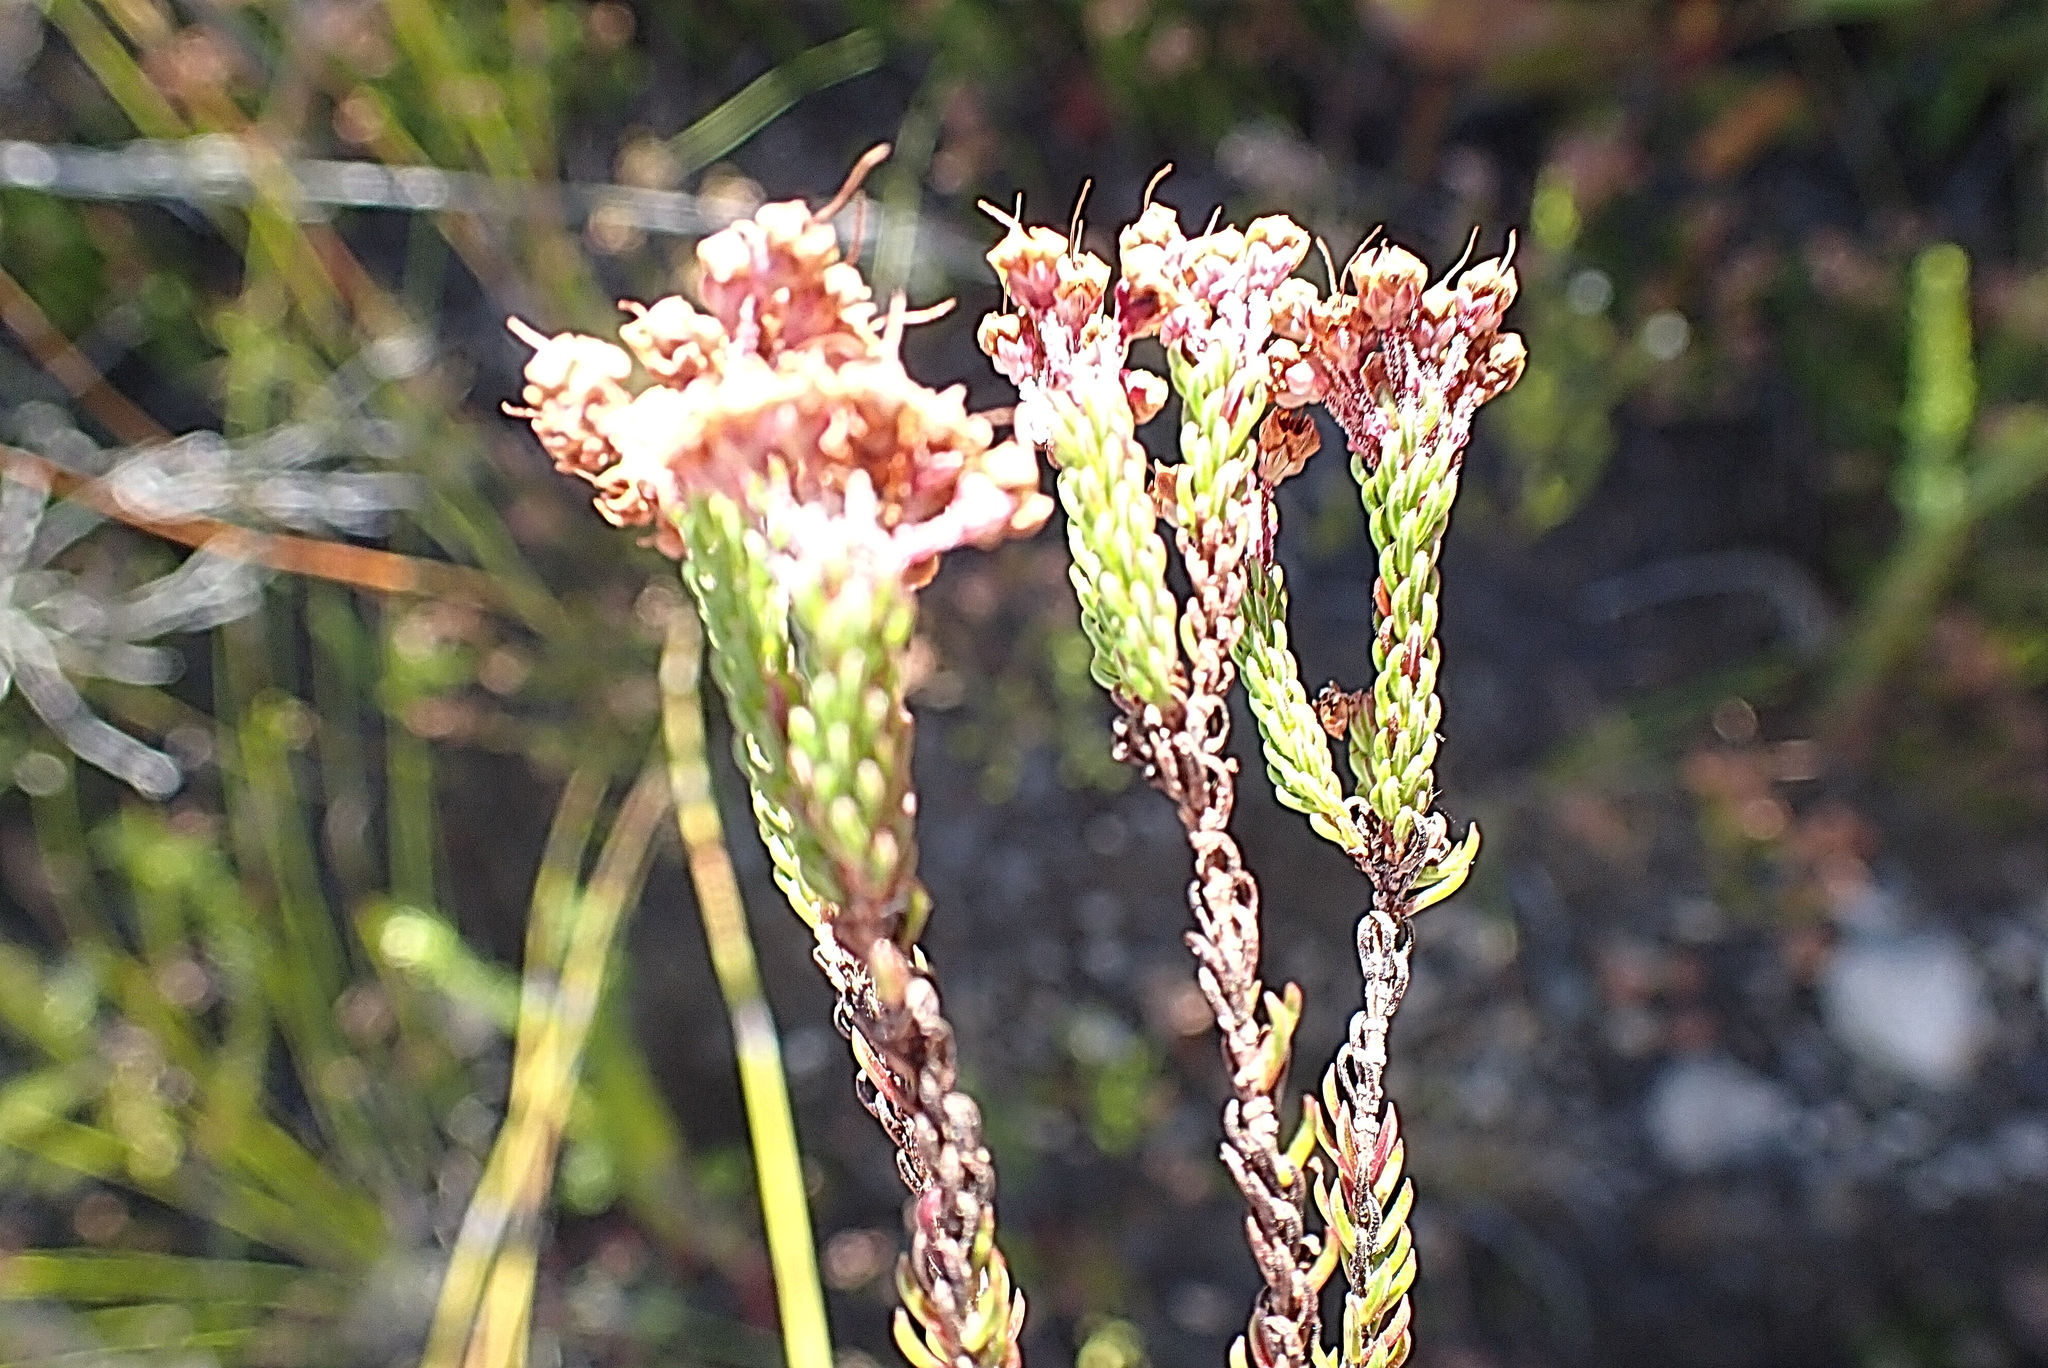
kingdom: Plantae
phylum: Tracheophyta
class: Magnoliopsida
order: Ericales
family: Ericaceae
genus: Erica
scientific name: Erica seriphiifolia
